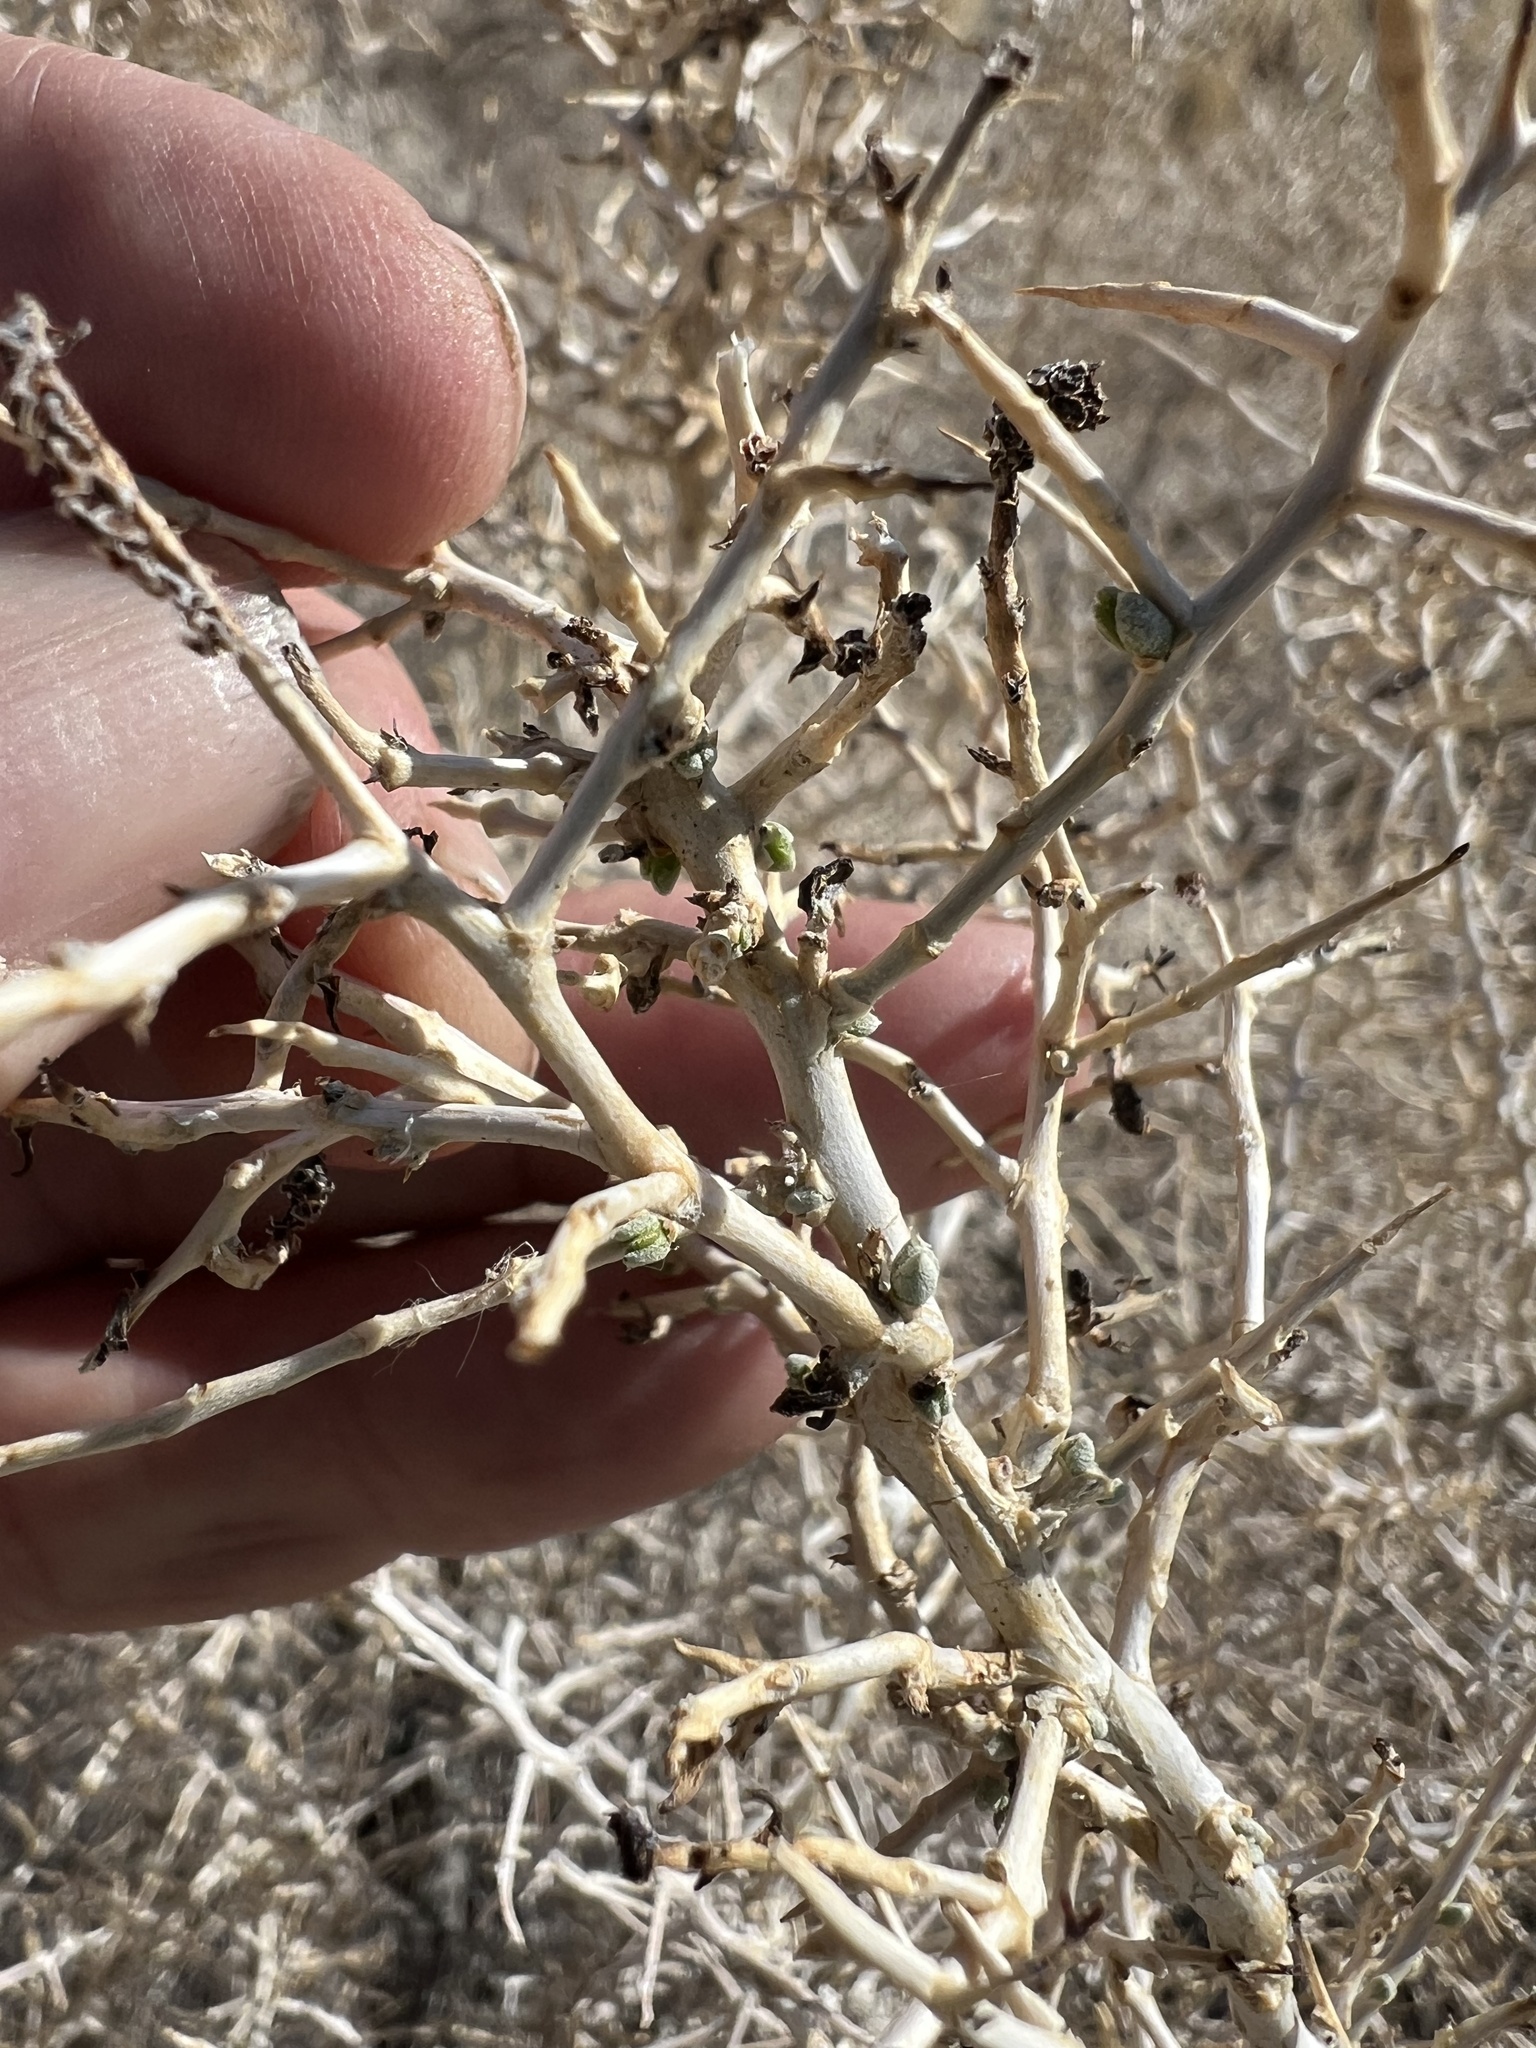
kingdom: Plantae
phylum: Tracheophyta
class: Magnoliopsida
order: Caryophyllales
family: Sarcobataceae
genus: Sarcobatus
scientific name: Sarcobatus vermiculatus
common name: Greasewood
